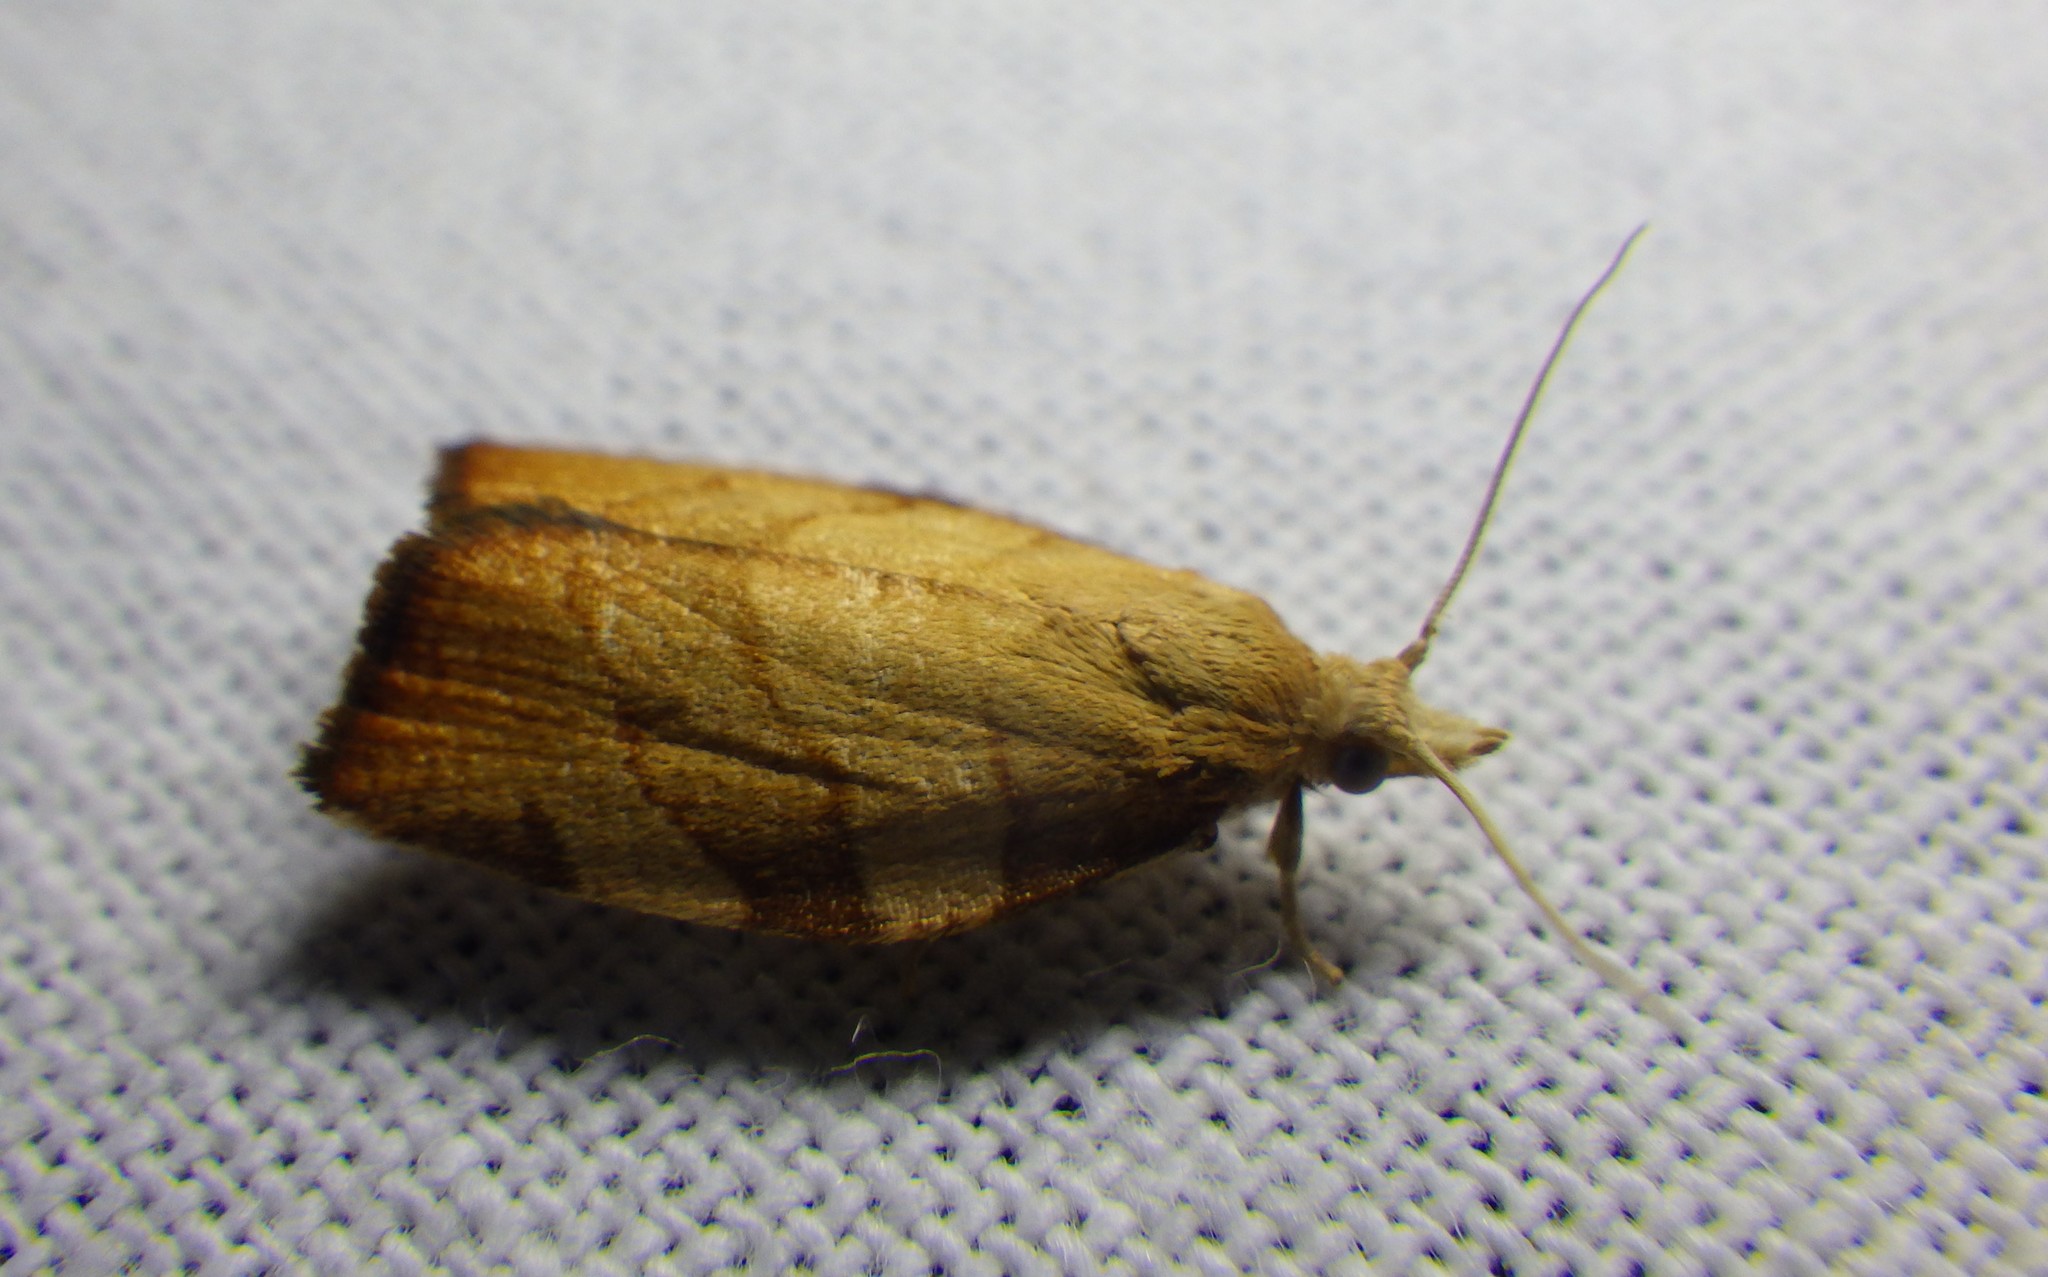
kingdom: Animalia
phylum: Arthropoda
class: Insecta
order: Lepidoptera
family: Tortricidae
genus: Pandemis
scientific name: Pandemis cerasana
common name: Barred fruit-tree tortrix
